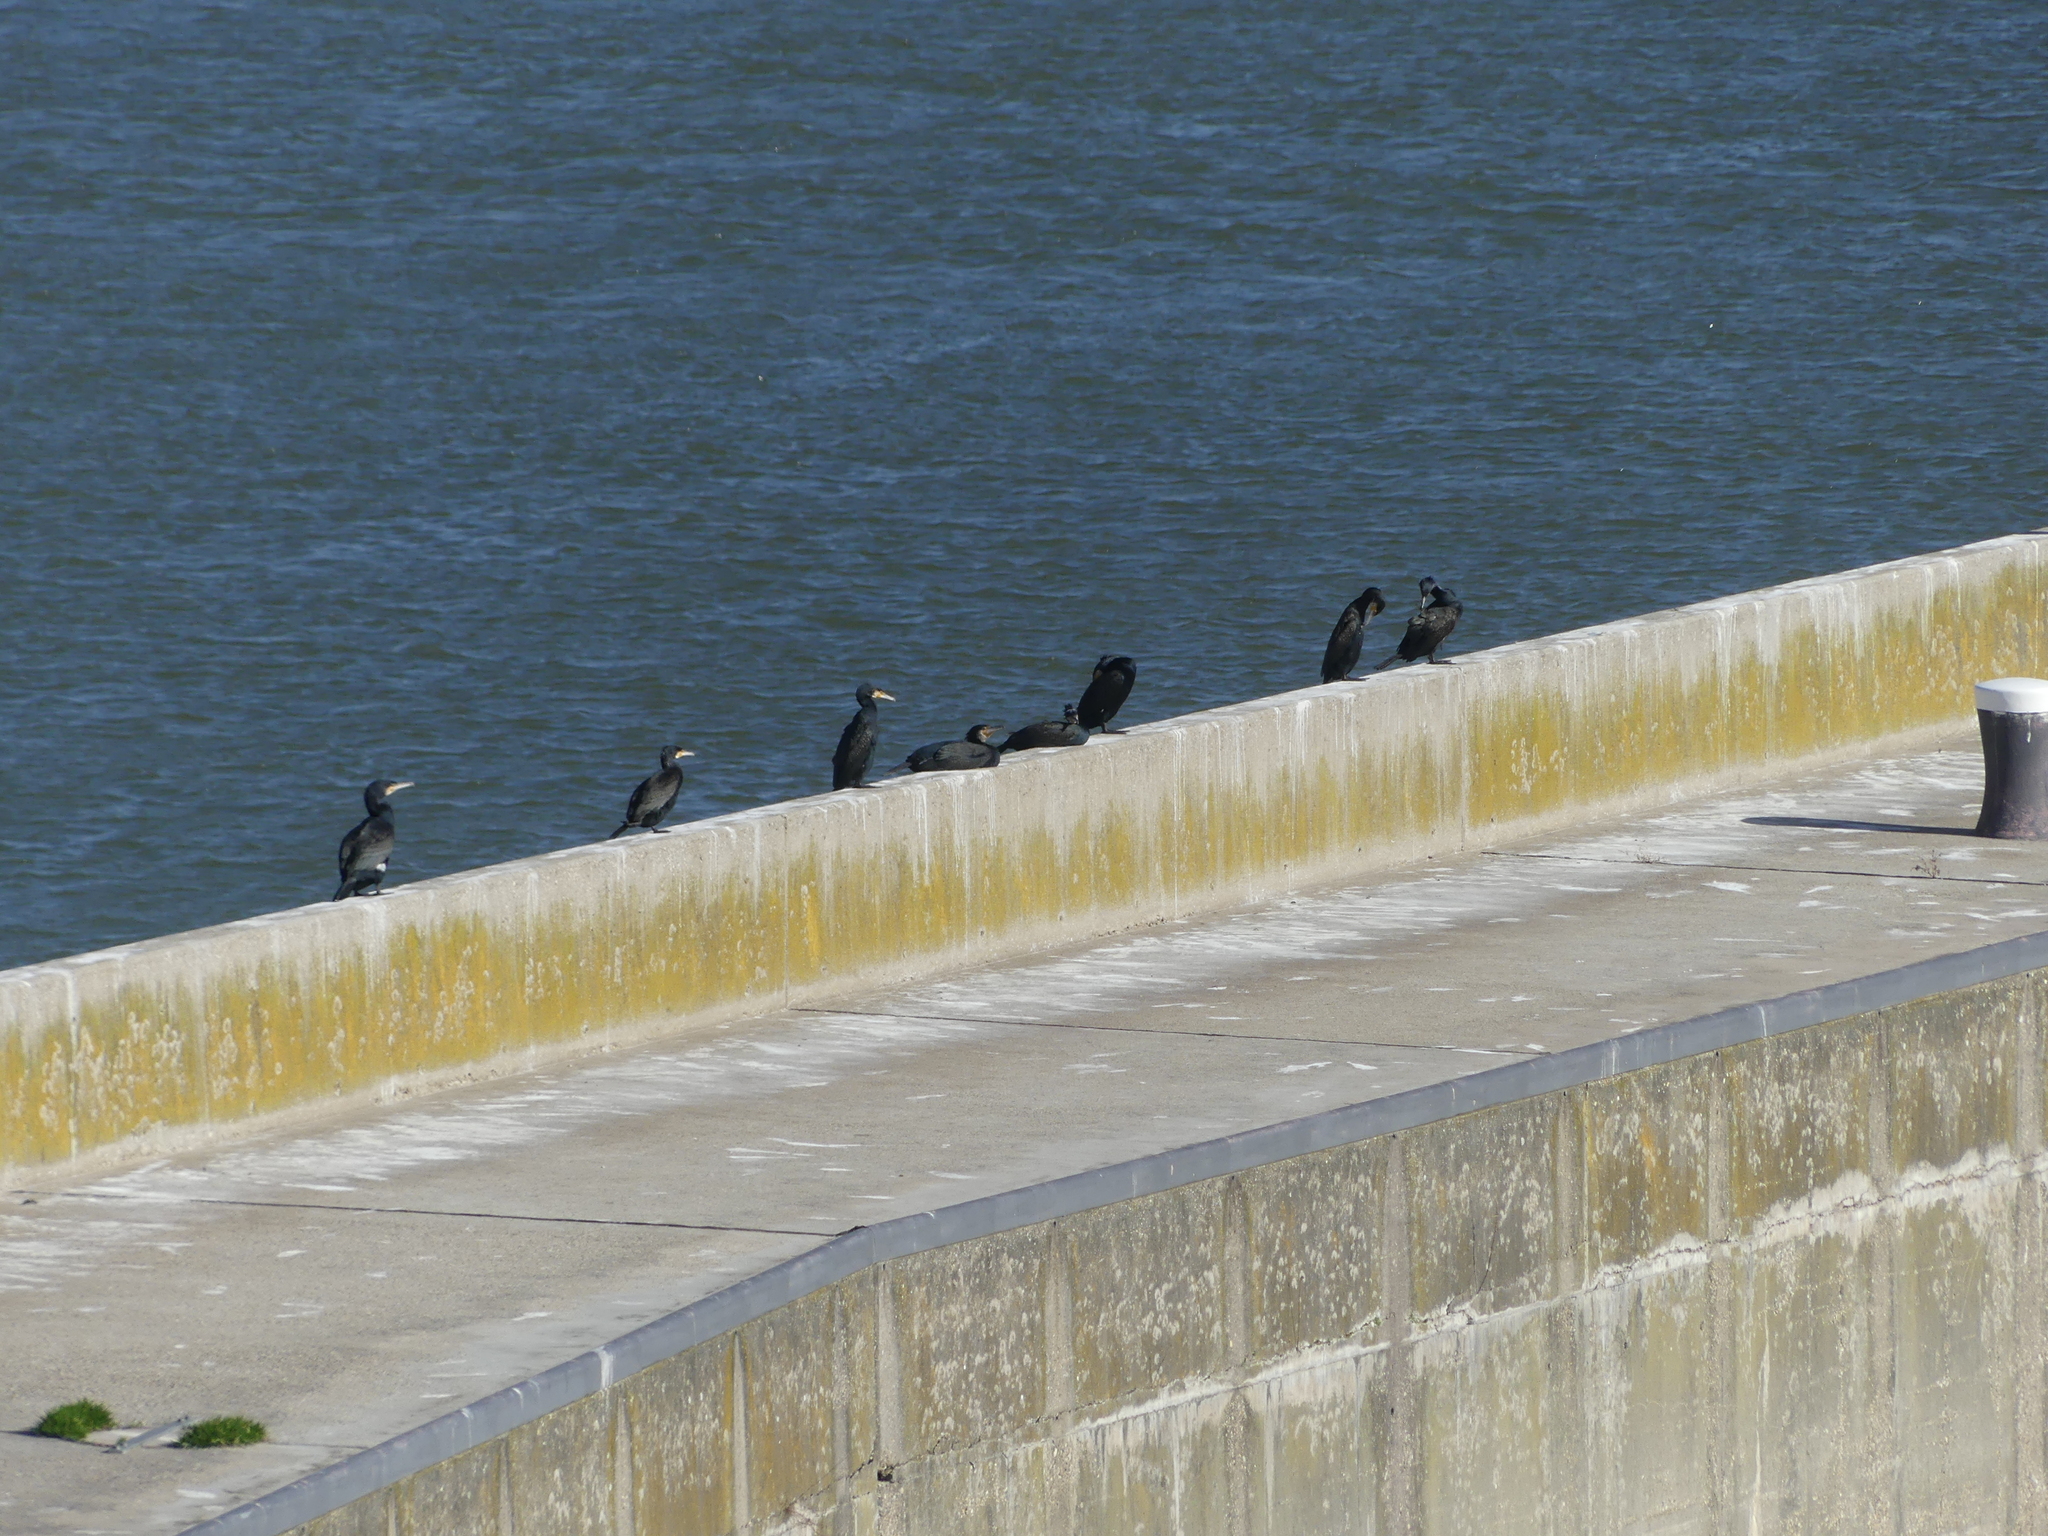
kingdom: Animalia
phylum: Chordata
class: Aves
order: Suliformes
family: Phalacrocoracidae
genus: Phalacrocorax
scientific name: Phalacrocorax carbo
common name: Great cormorant
